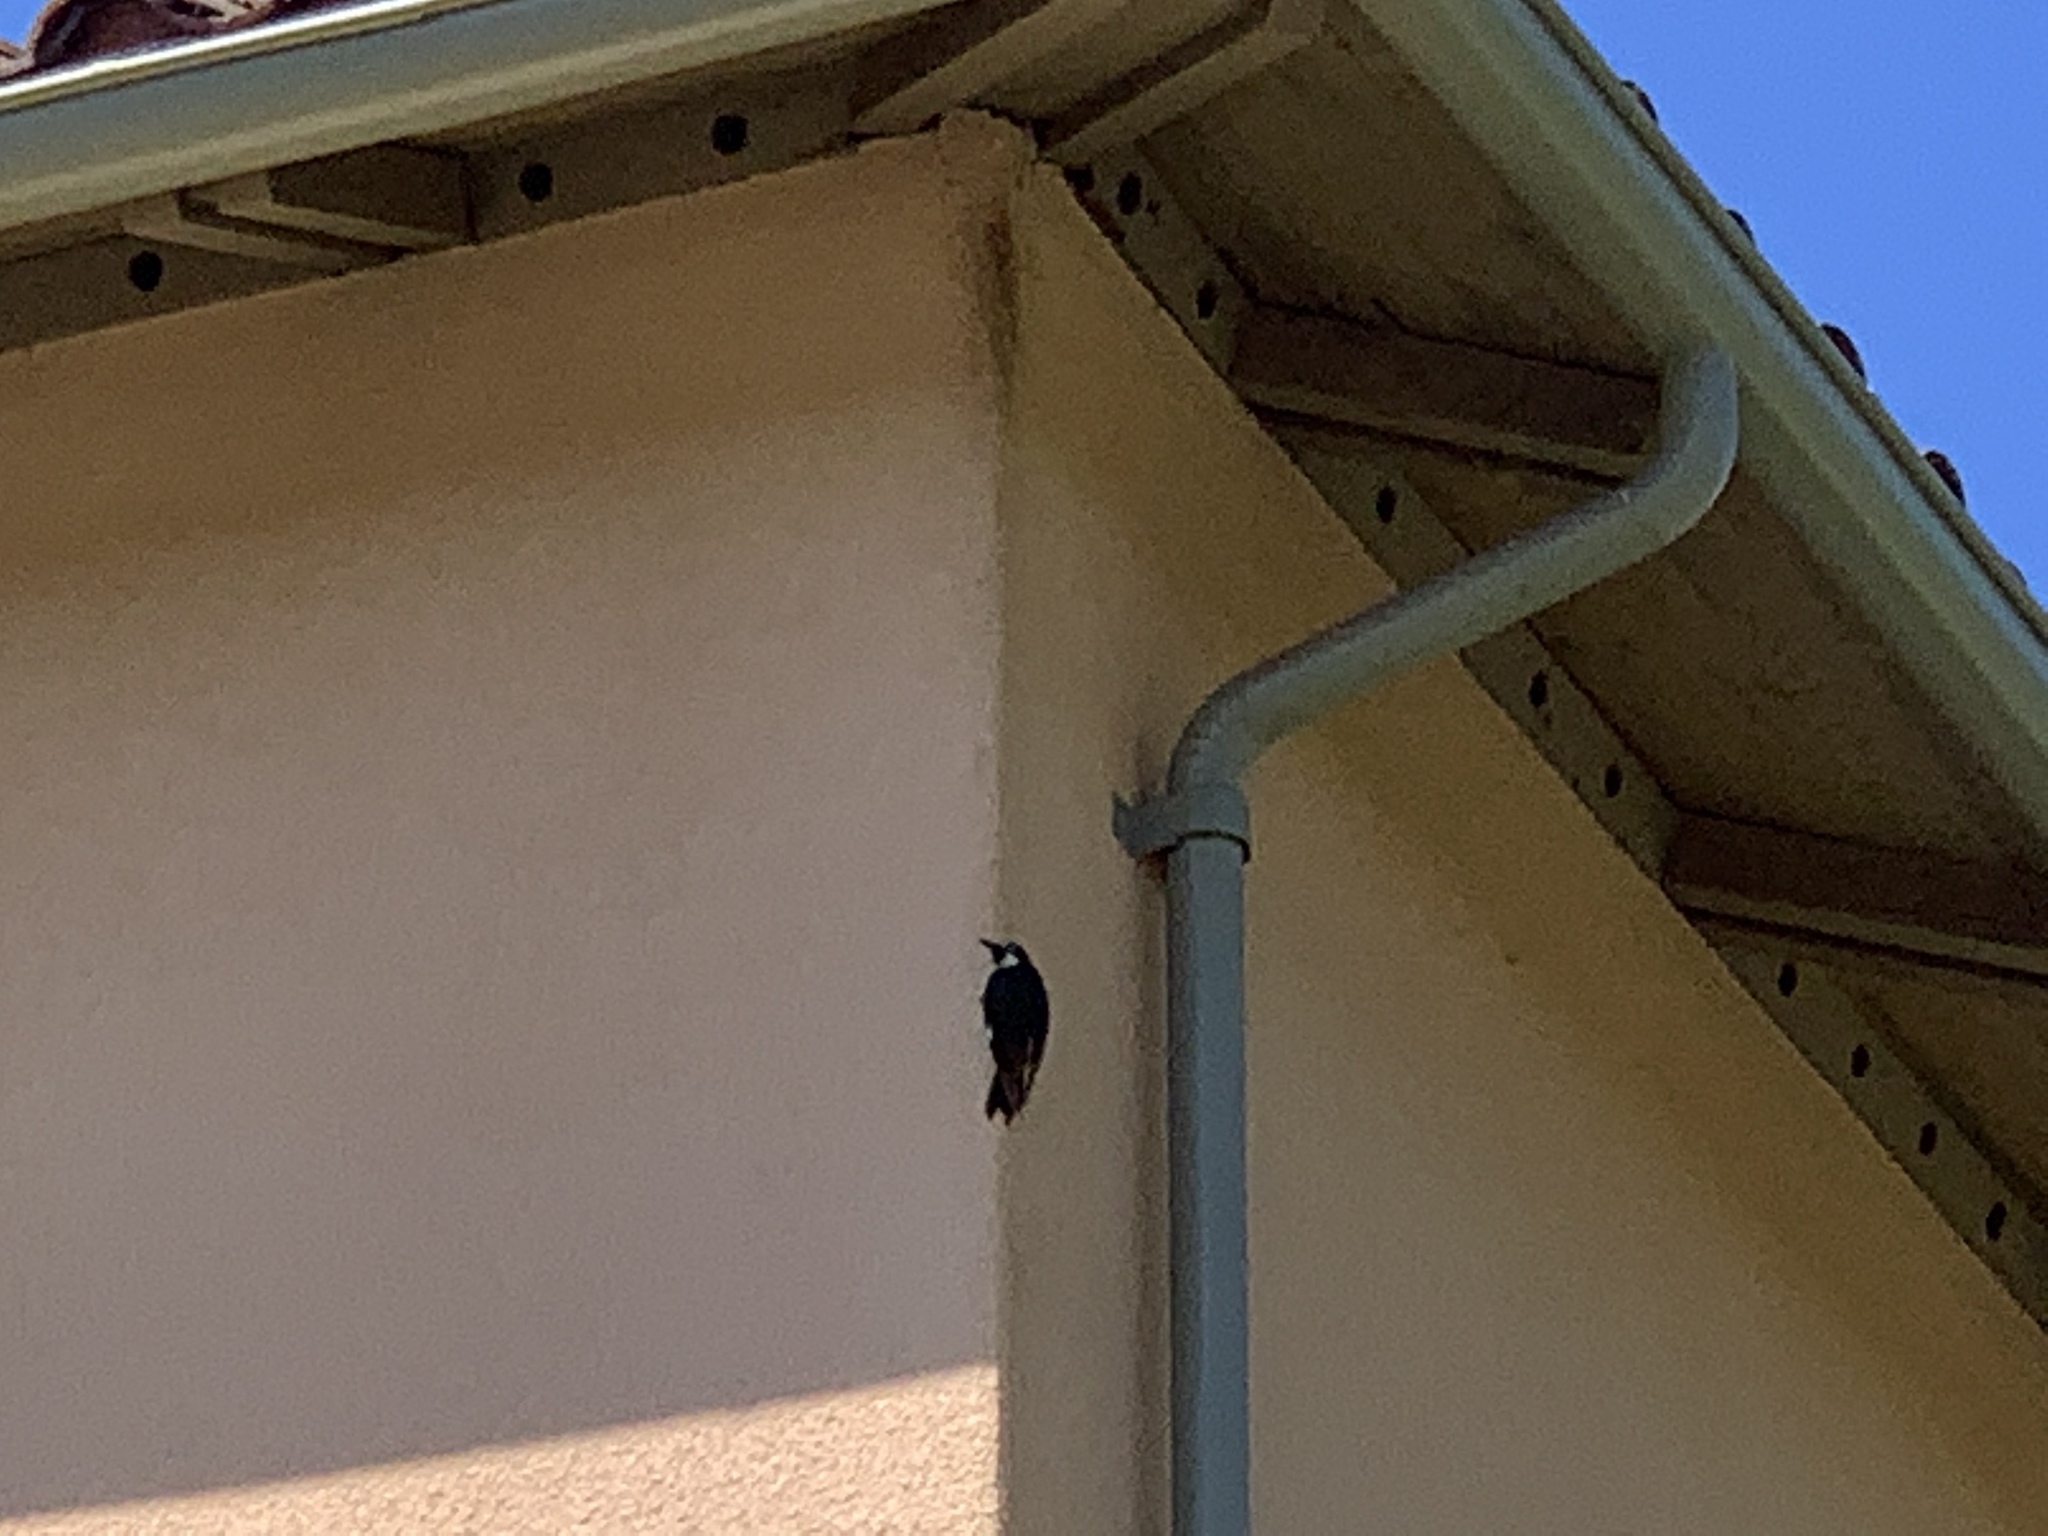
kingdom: Animalia
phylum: Chordata
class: Aves
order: Piciformes
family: Picidae
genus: Melanerpes
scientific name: Melanerpes formicivorus
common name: Acorn woodpecker
